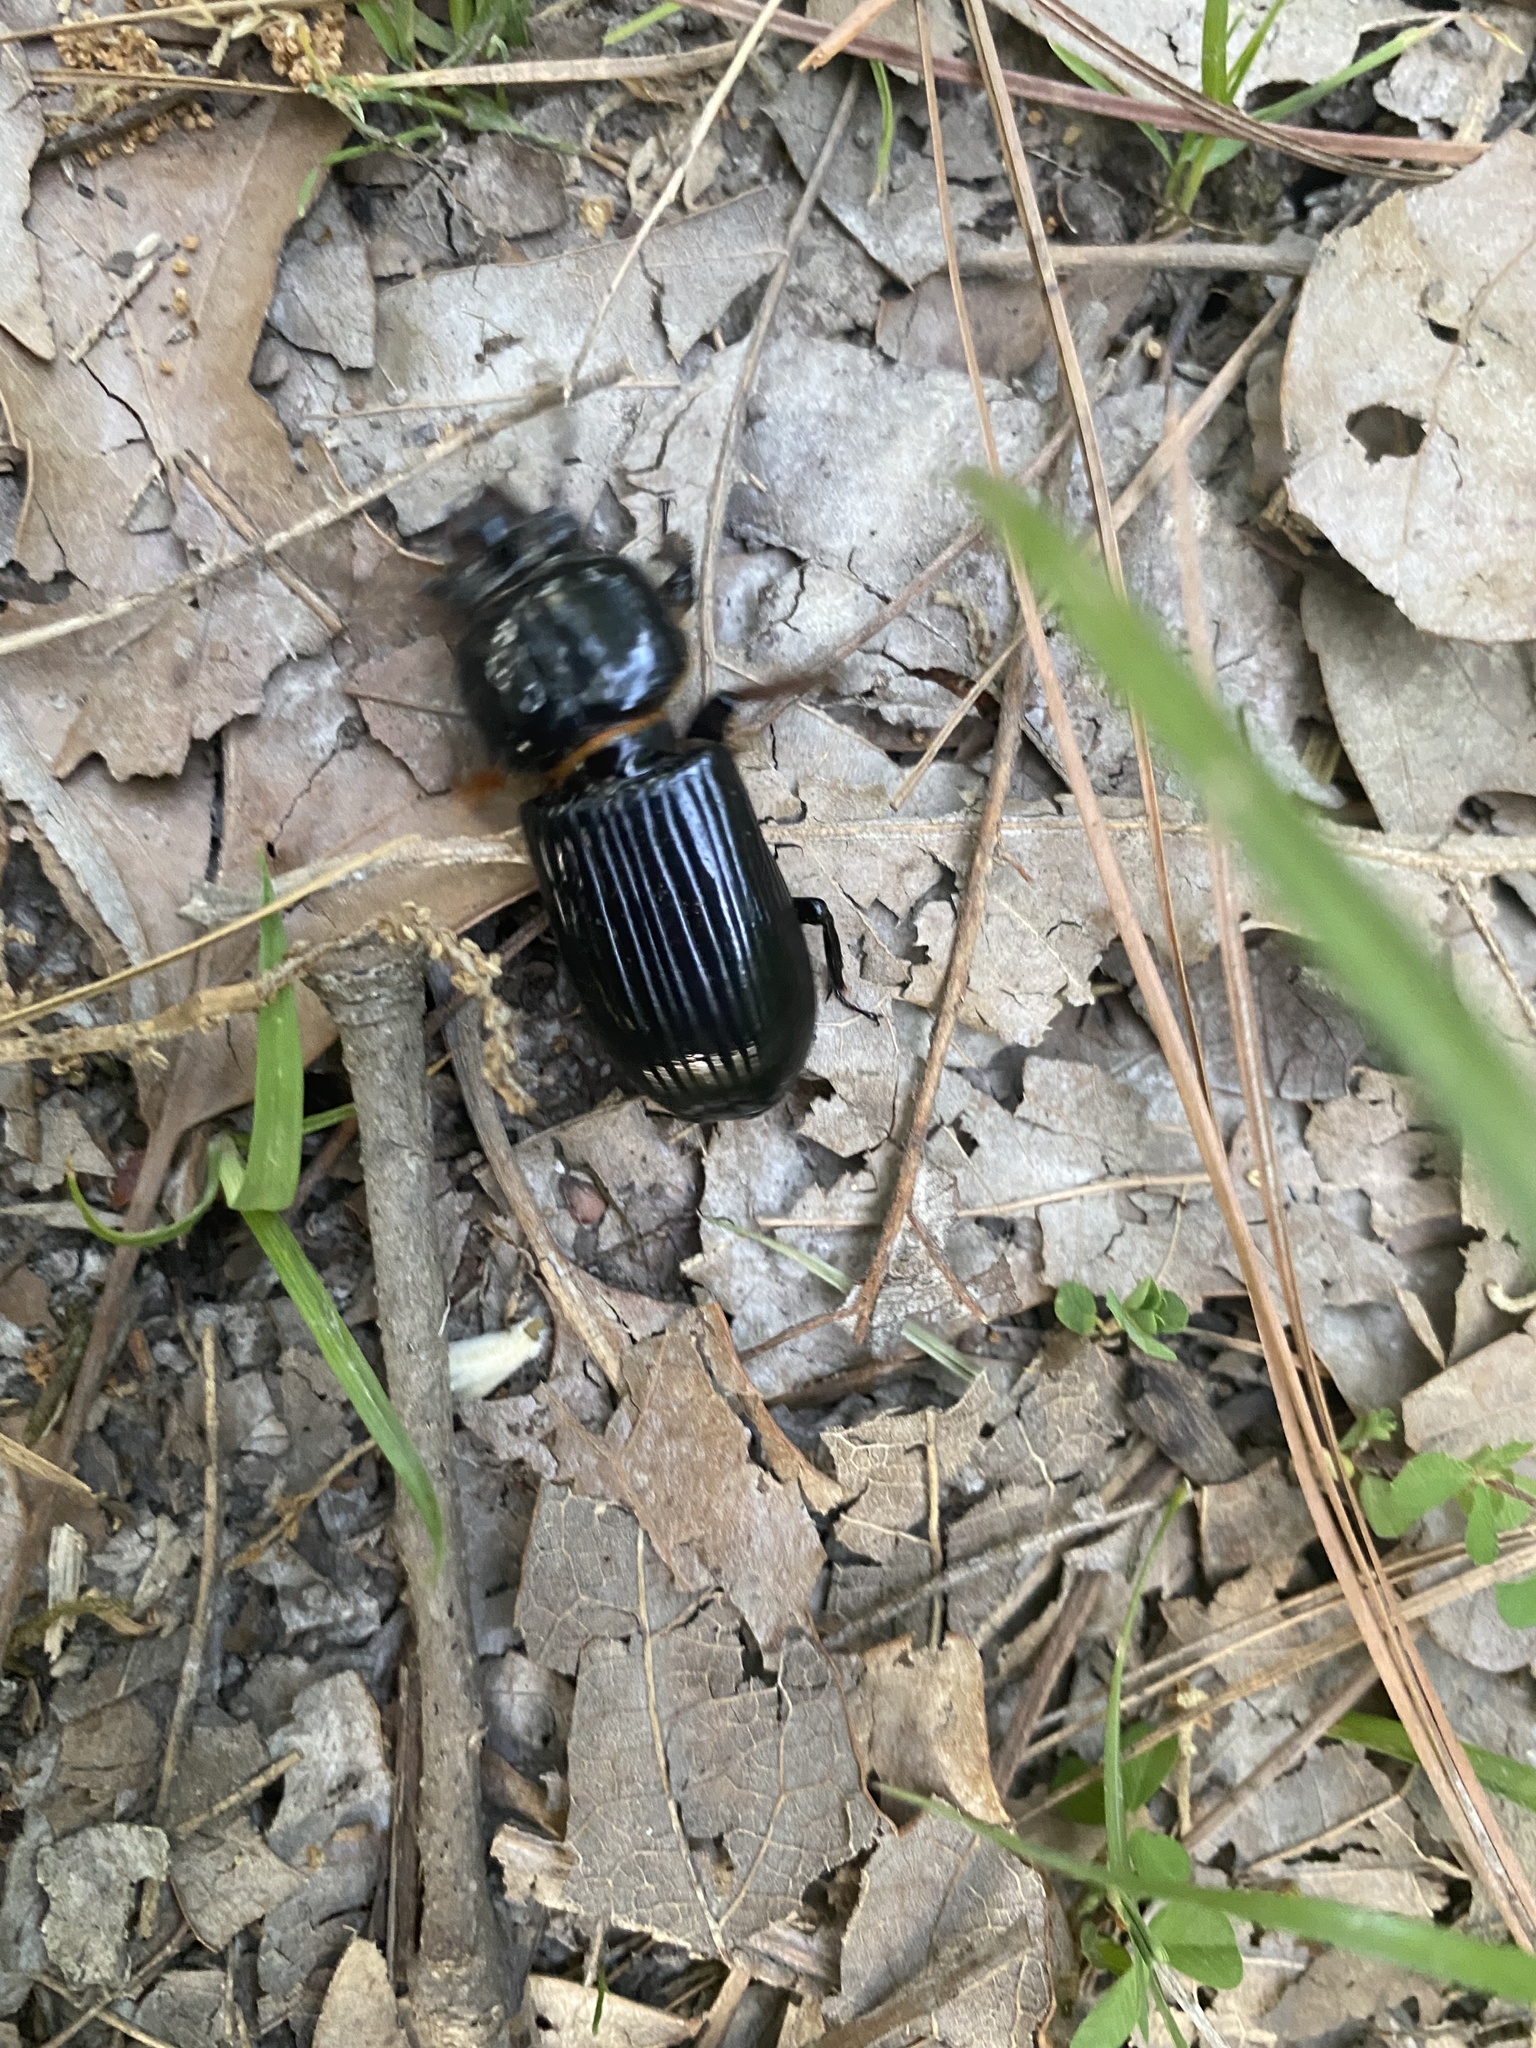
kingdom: Animalia
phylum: Arthropoda
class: Insecta
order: Coleoptera
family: Passalidae
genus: Odontotaenius
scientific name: Odontotaenius disjunctus
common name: Patent leather beetle
